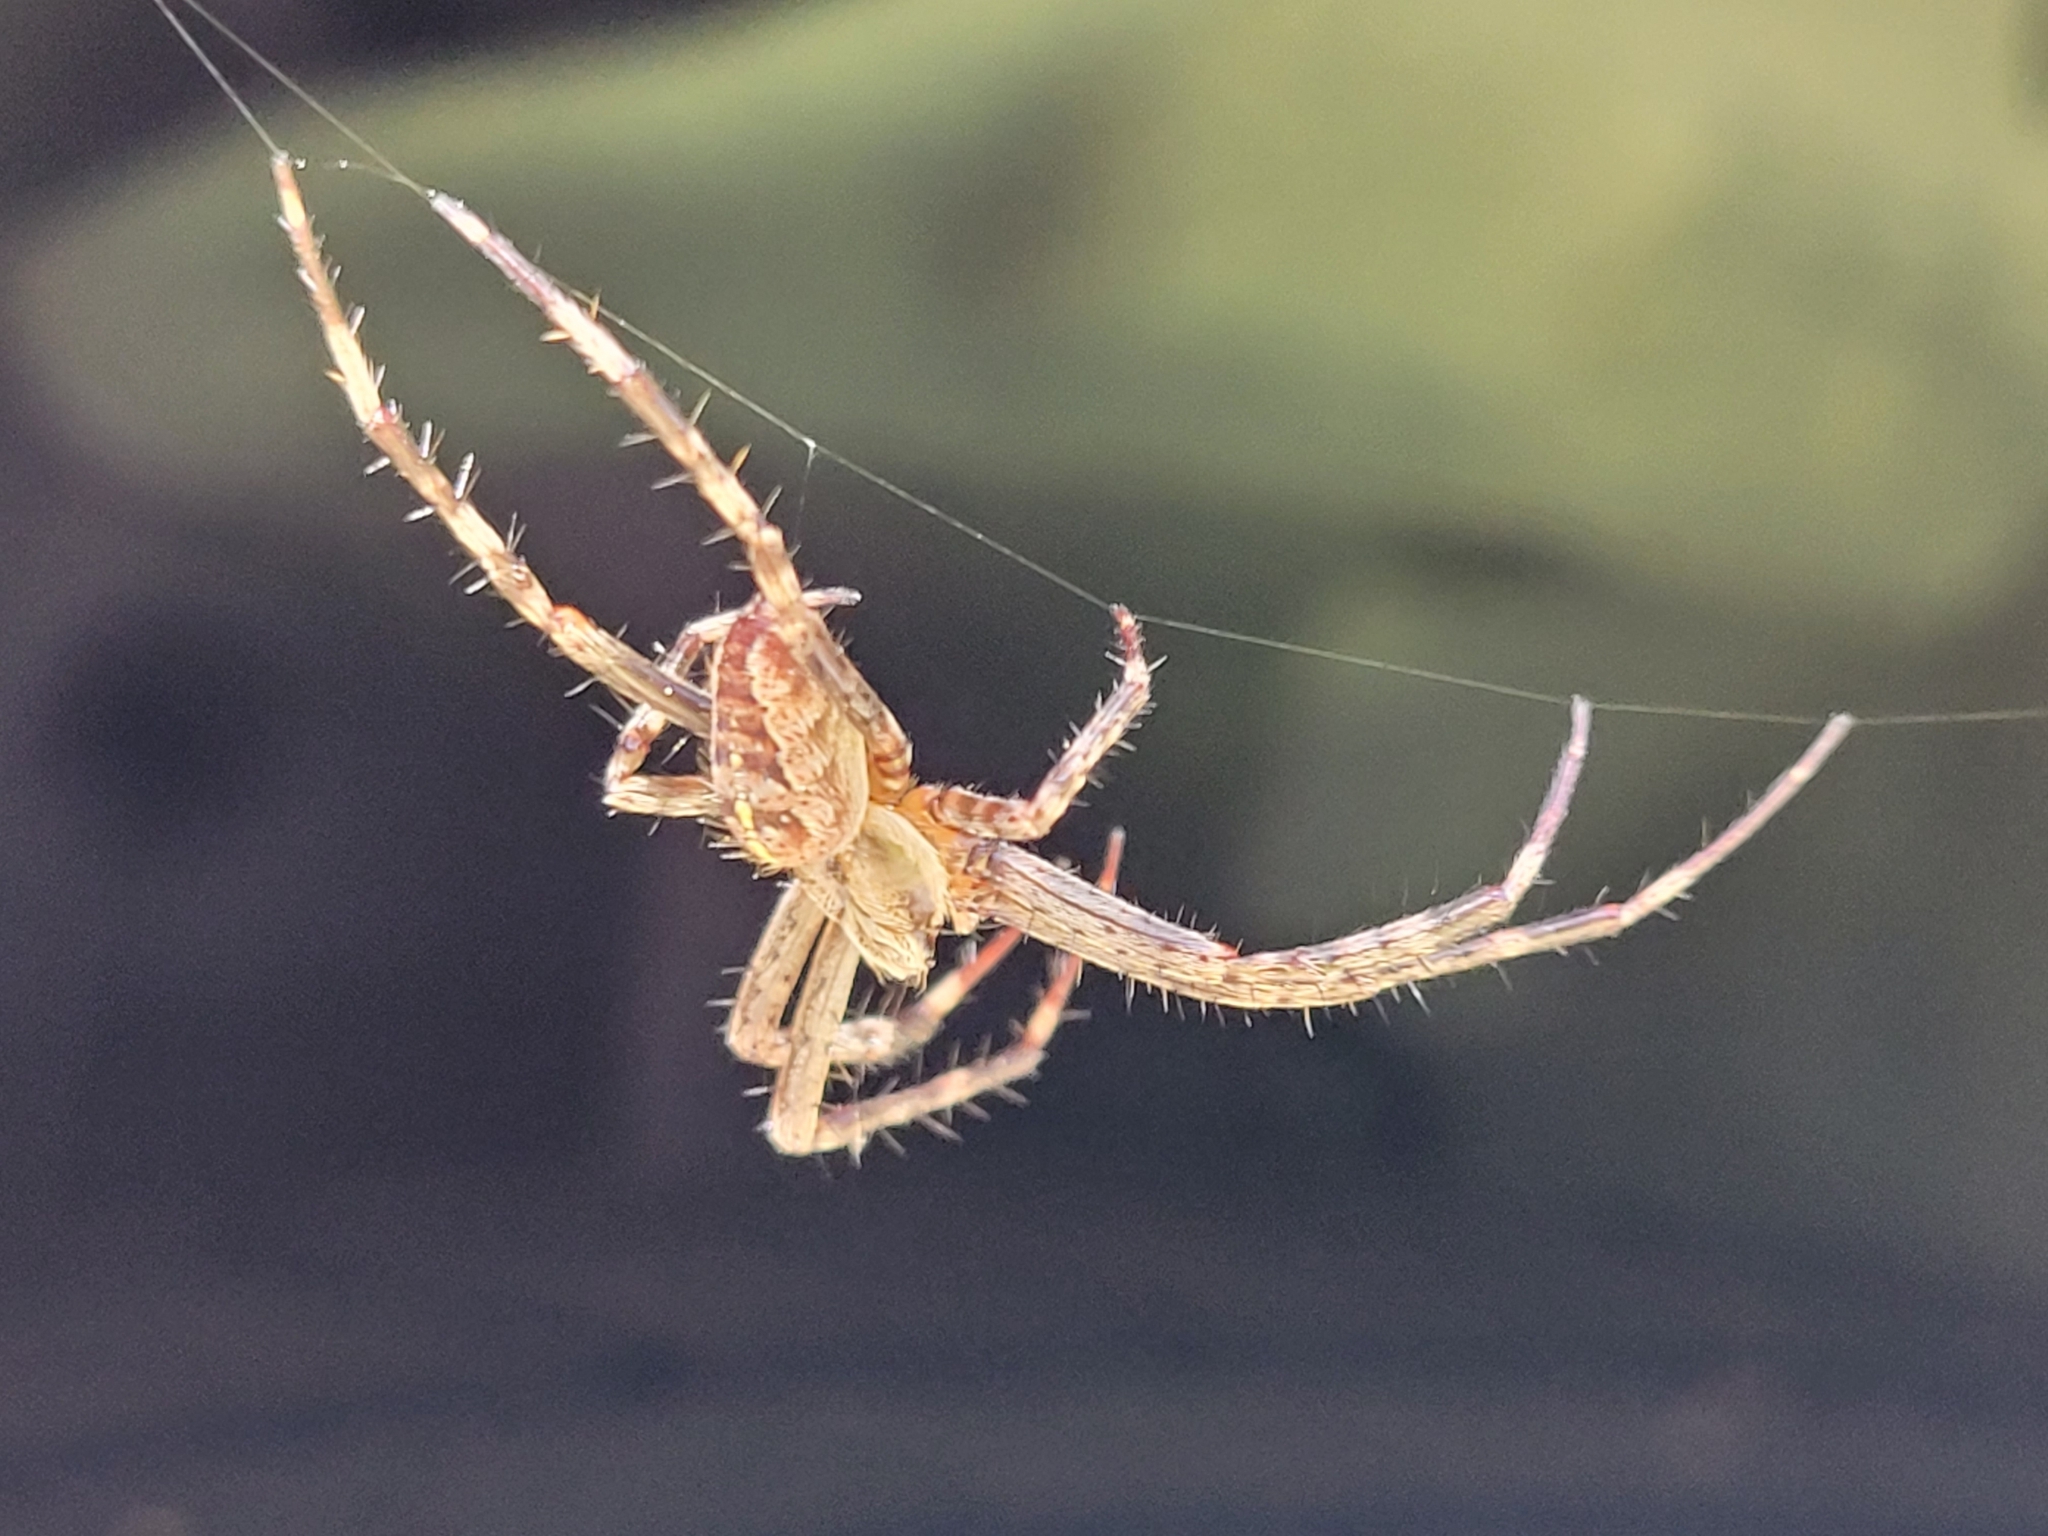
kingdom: Animalia
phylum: Arthropoda
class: Arachnida
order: Araneae
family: Araneidae
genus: Araneus
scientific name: Araneus diadematus
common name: Cross orbweaver
